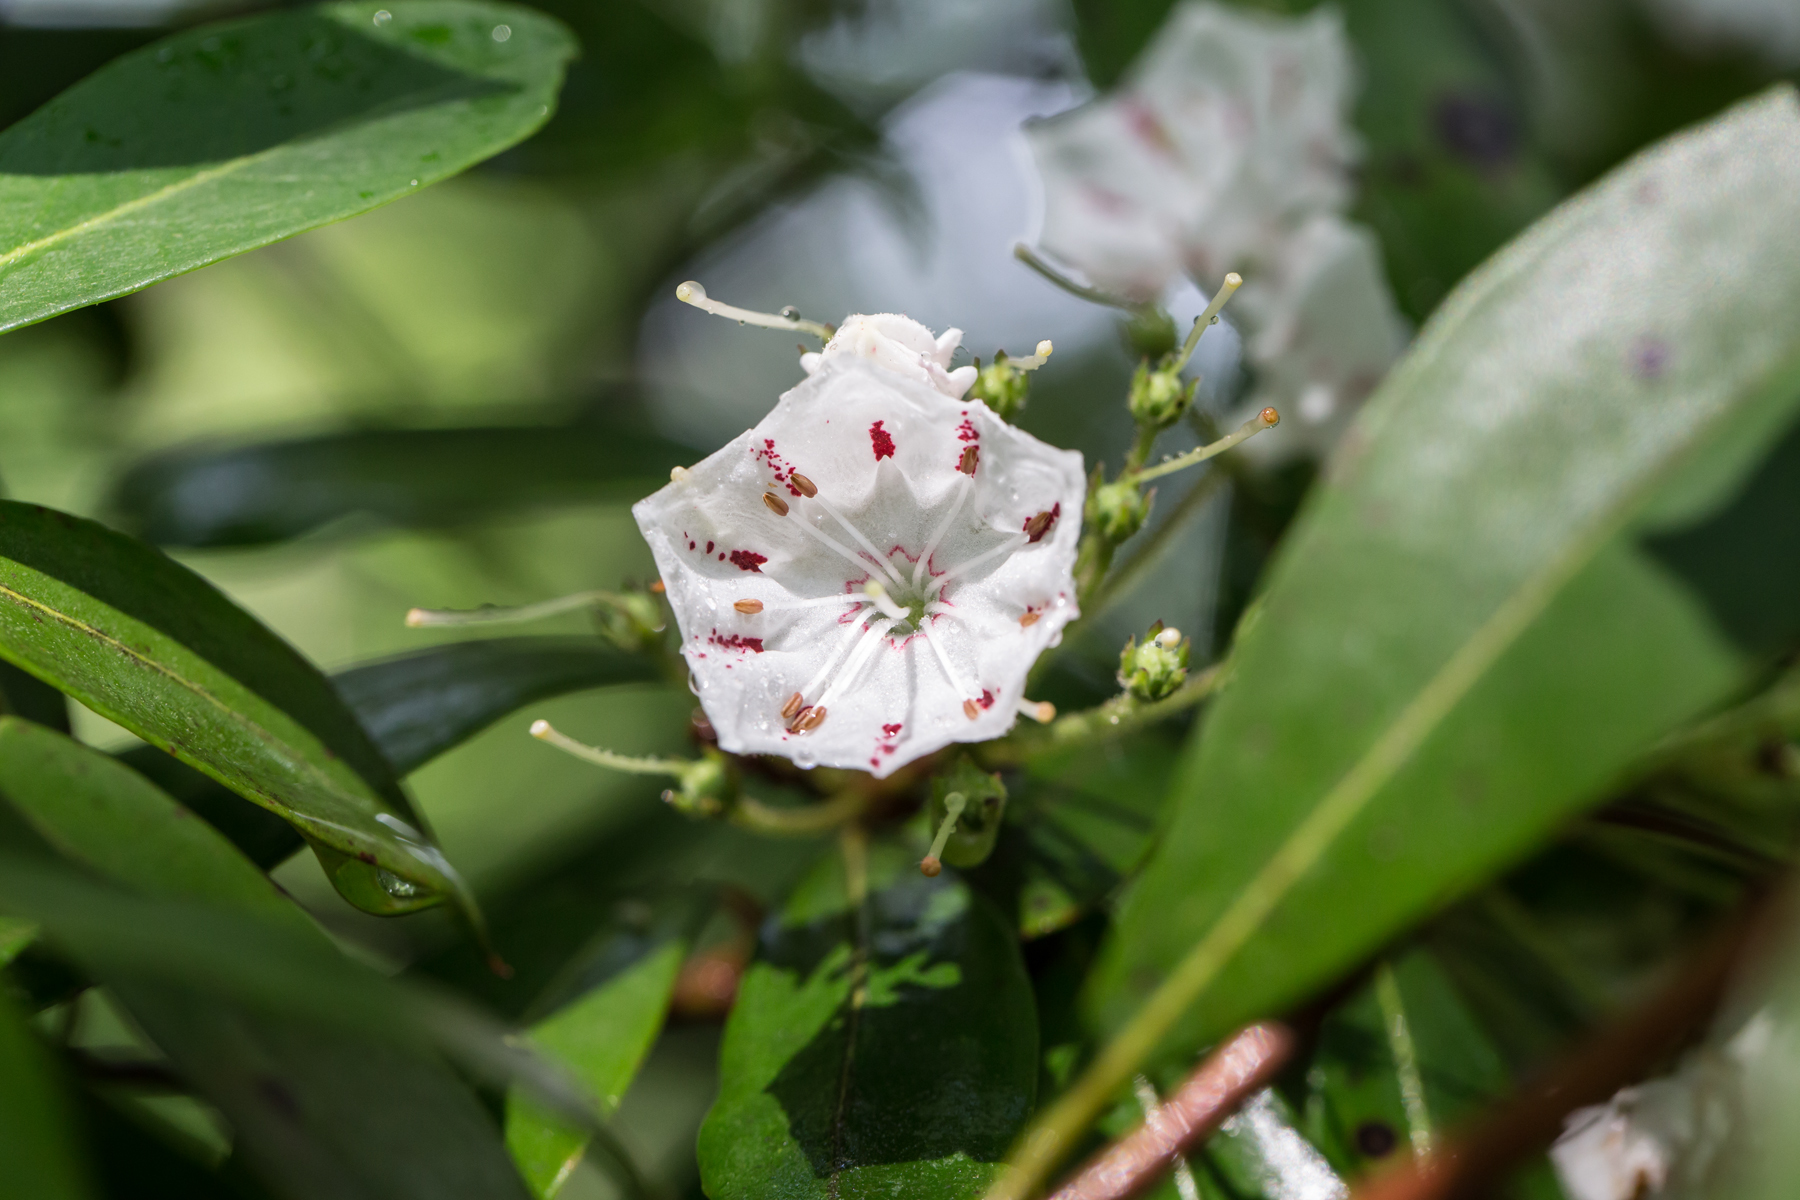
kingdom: Plantae
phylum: Tracheophyta
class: Magnoliopsida
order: Ericales
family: Ericaceae
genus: Kalmia
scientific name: Kalmia latifolia
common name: Mountain-laurel
